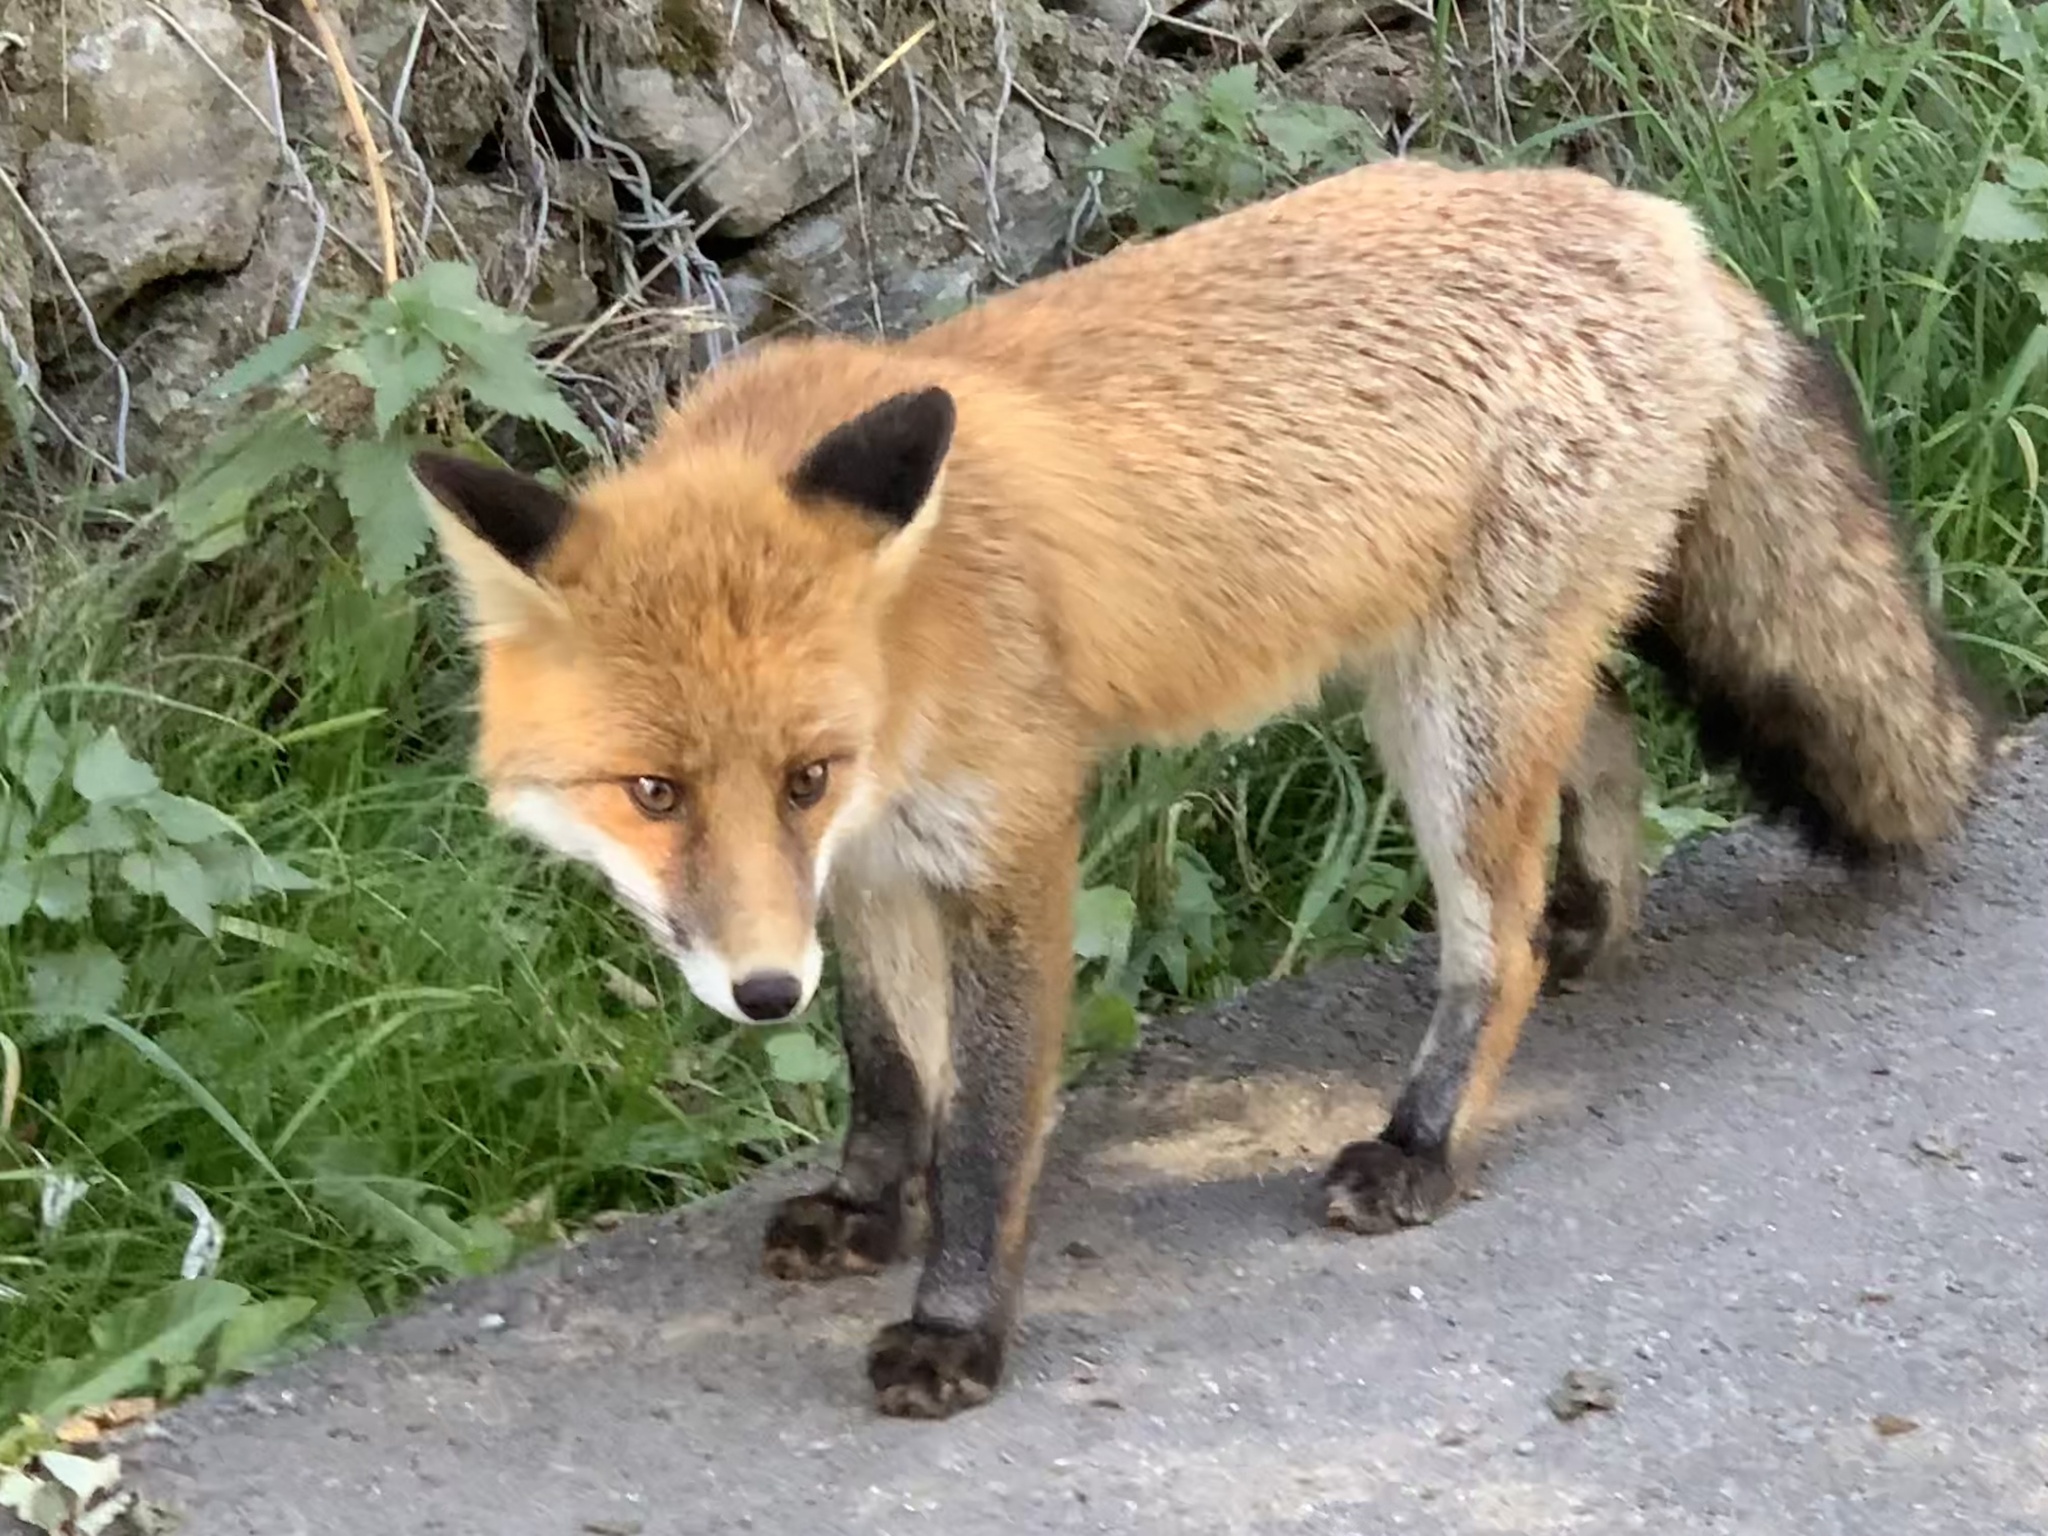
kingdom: Animalia
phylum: Chordata
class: Mammalia
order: Carnivora
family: Canidae
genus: Vulpes
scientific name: Vulpes vulpes
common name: Red fox
